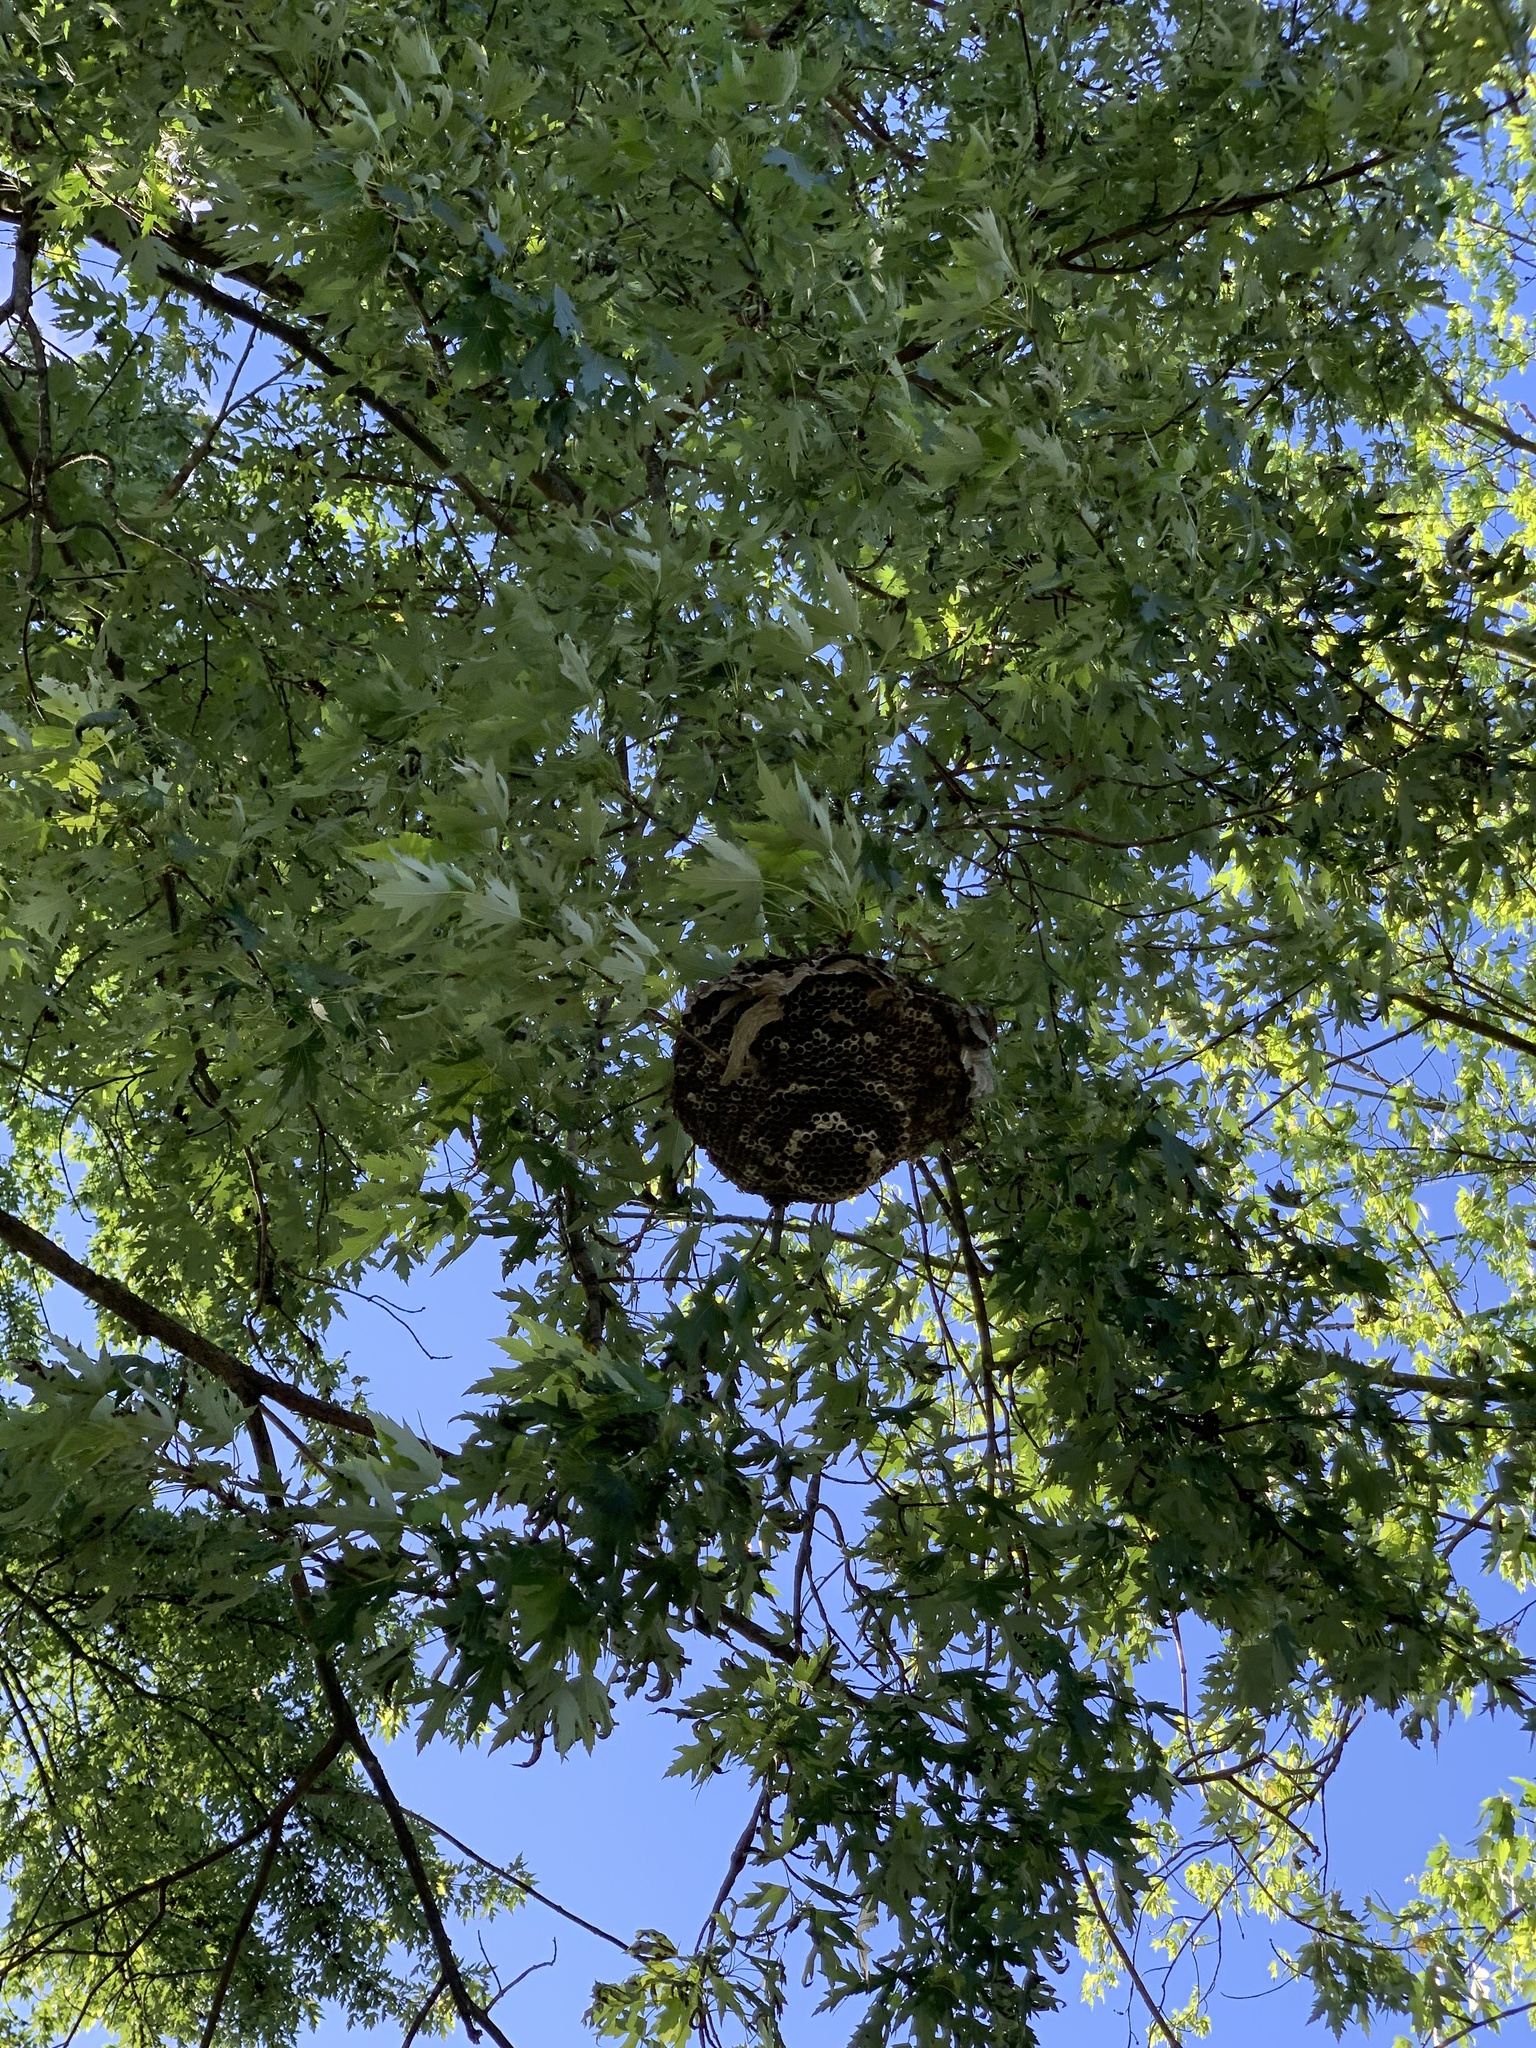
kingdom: Animalia
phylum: Arthropoda
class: Insecta
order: Hymenoptera
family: Vespidae
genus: Dolichovespula
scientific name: Dolichovespula maculata
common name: Bald-faced hornet
